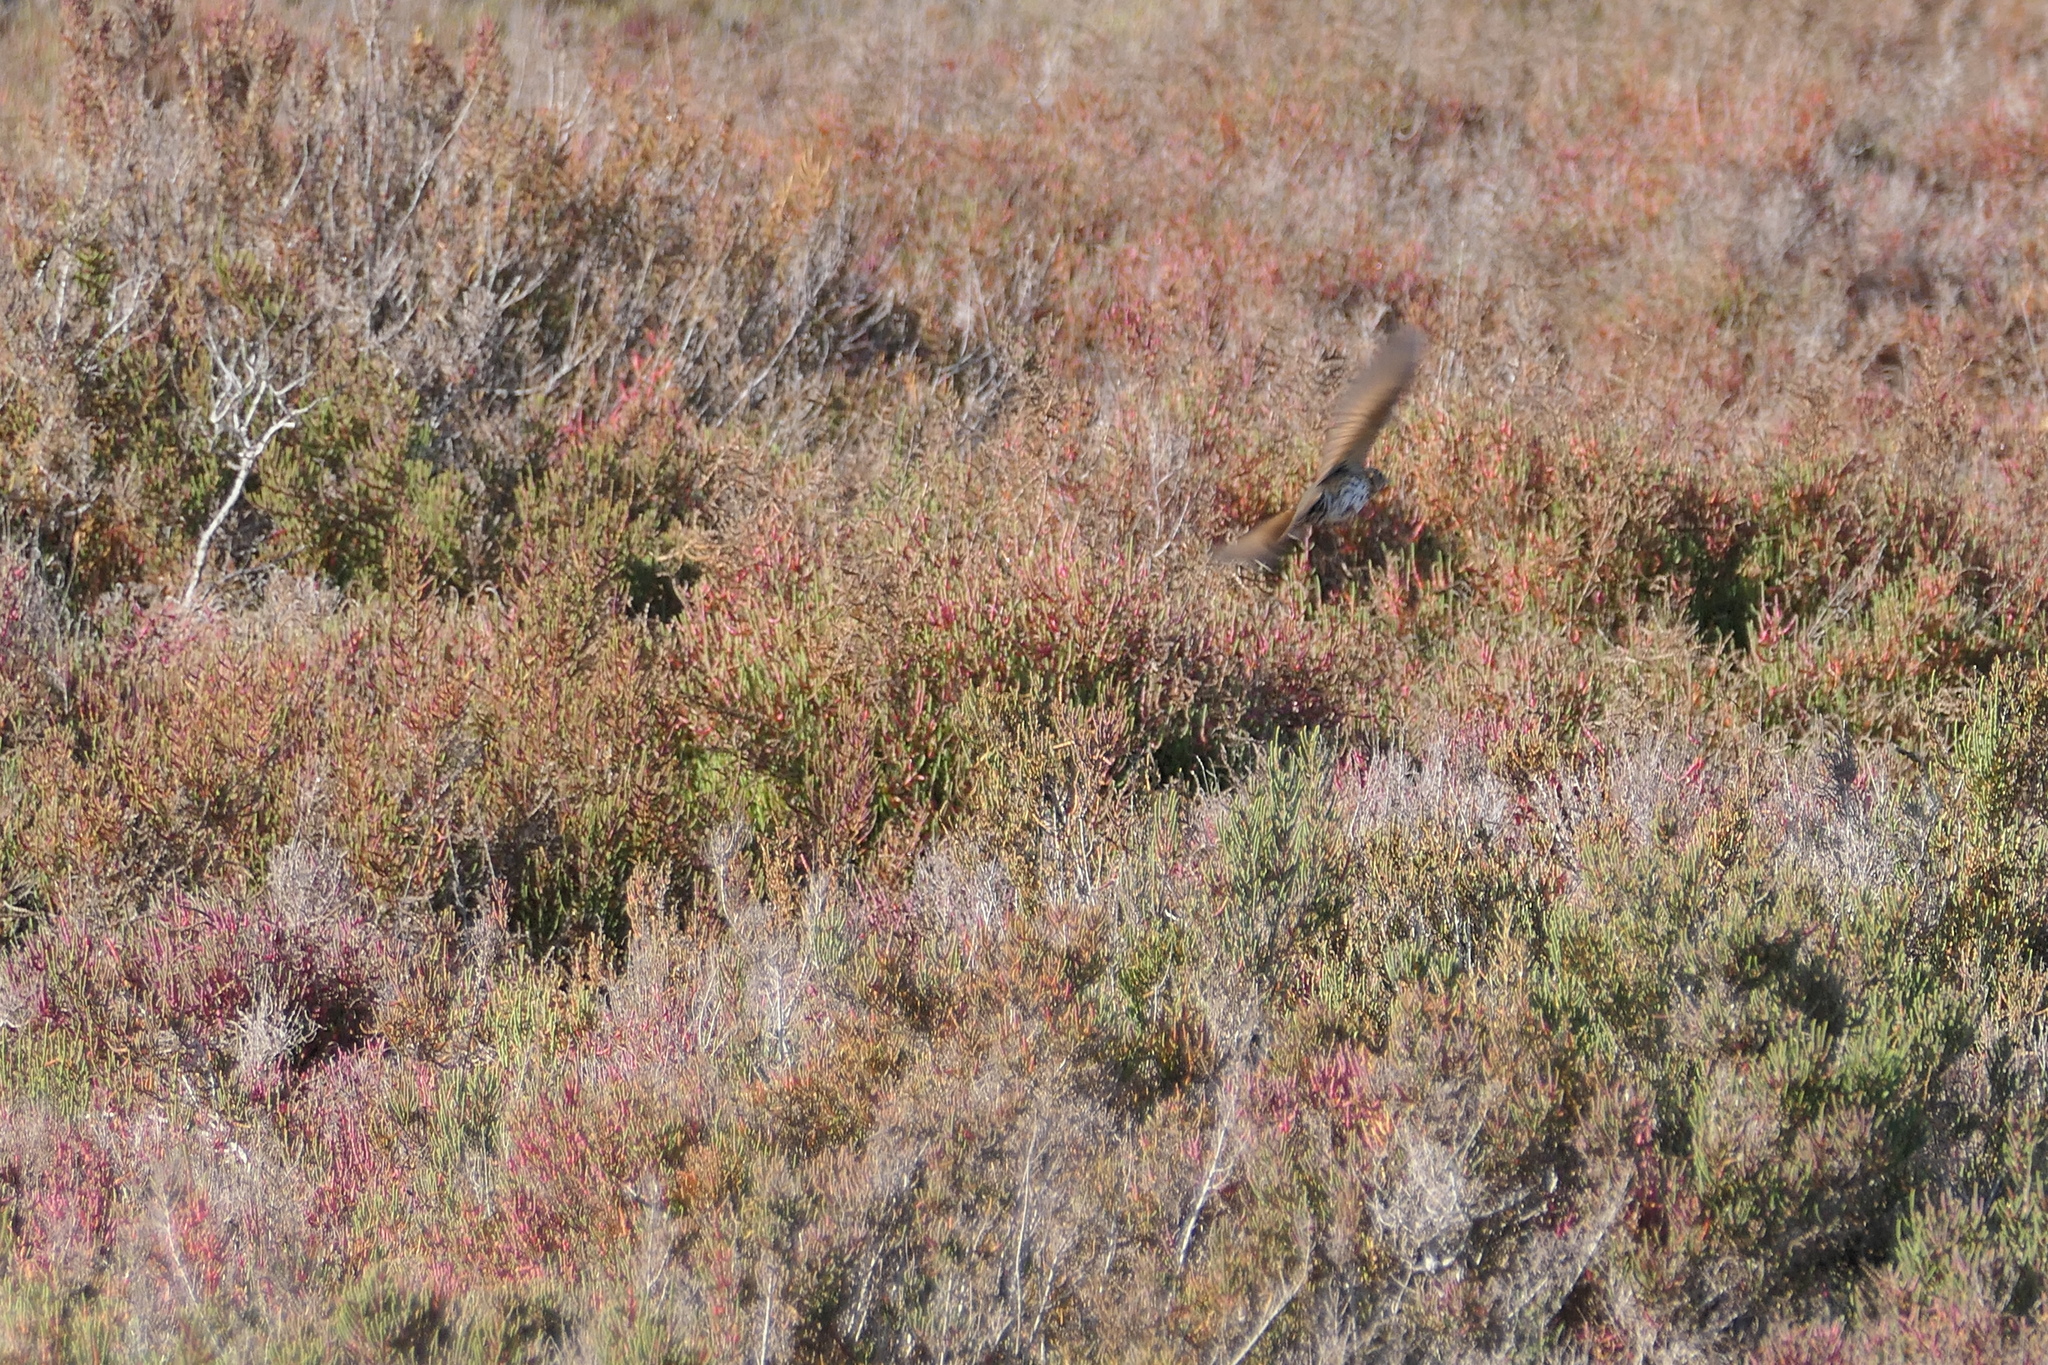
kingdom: Animalia
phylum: Chordata
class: Aves
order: Passeriformes
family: Turdidae
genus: Turdus
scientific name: Turdus philomelos
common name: Song thrush
